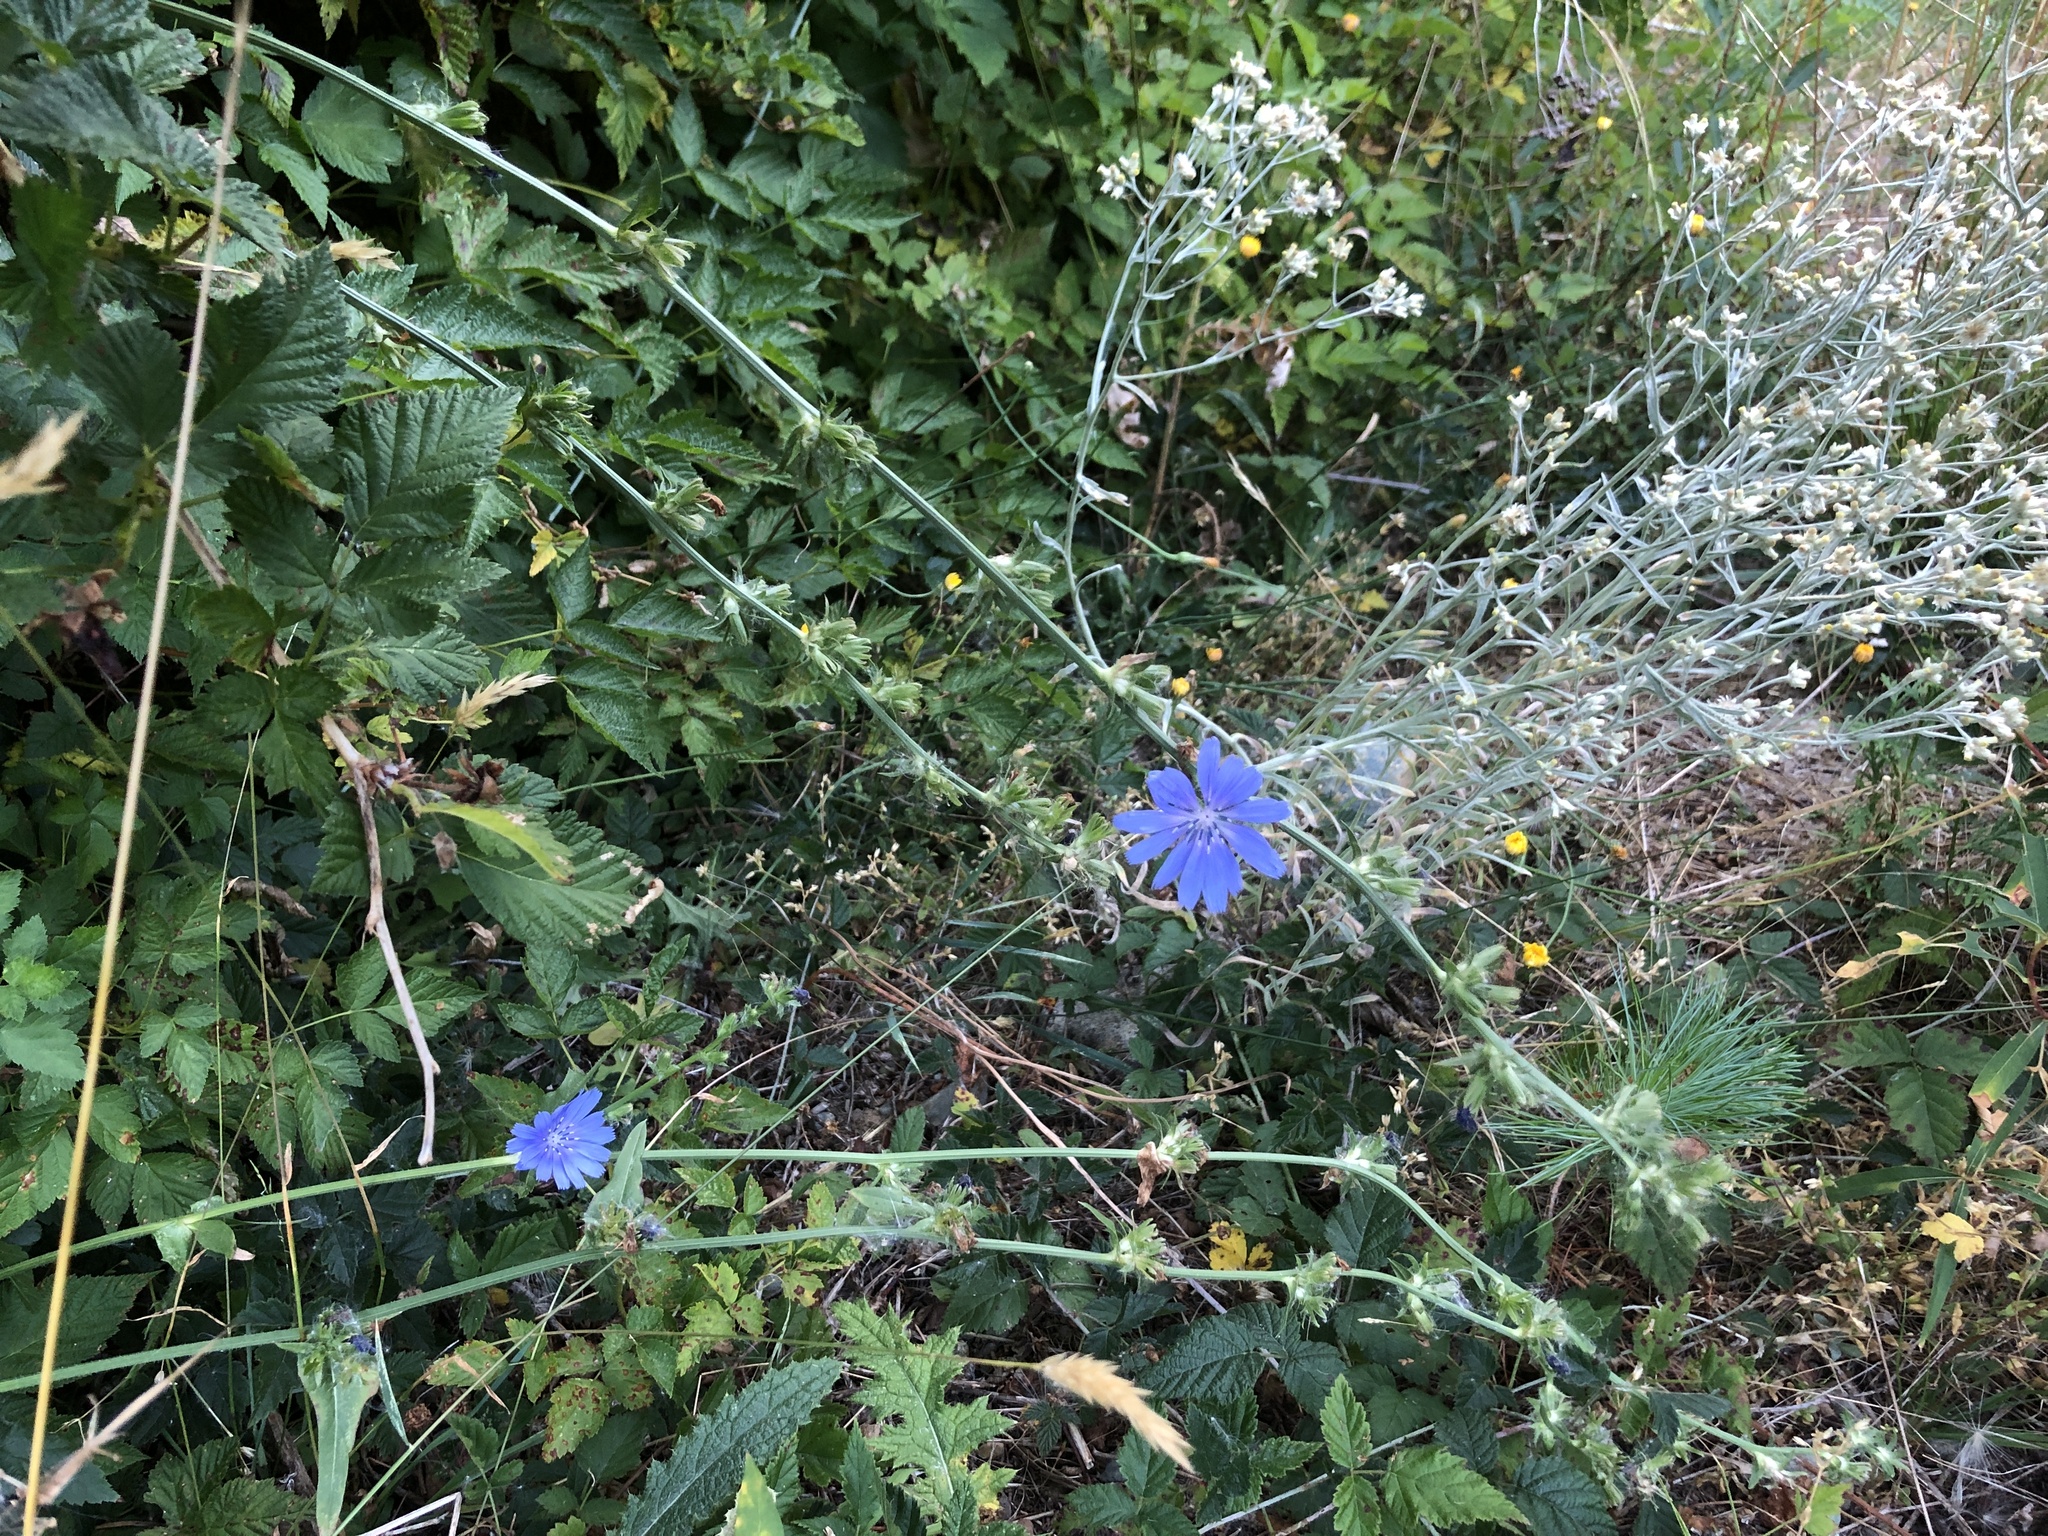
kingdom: Plantae
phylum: Tracheophyta
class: Magnoliopsida
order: Asterales
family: Asteraceae
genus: Cichorium
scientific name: Cichorium intybus
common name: Chicory
